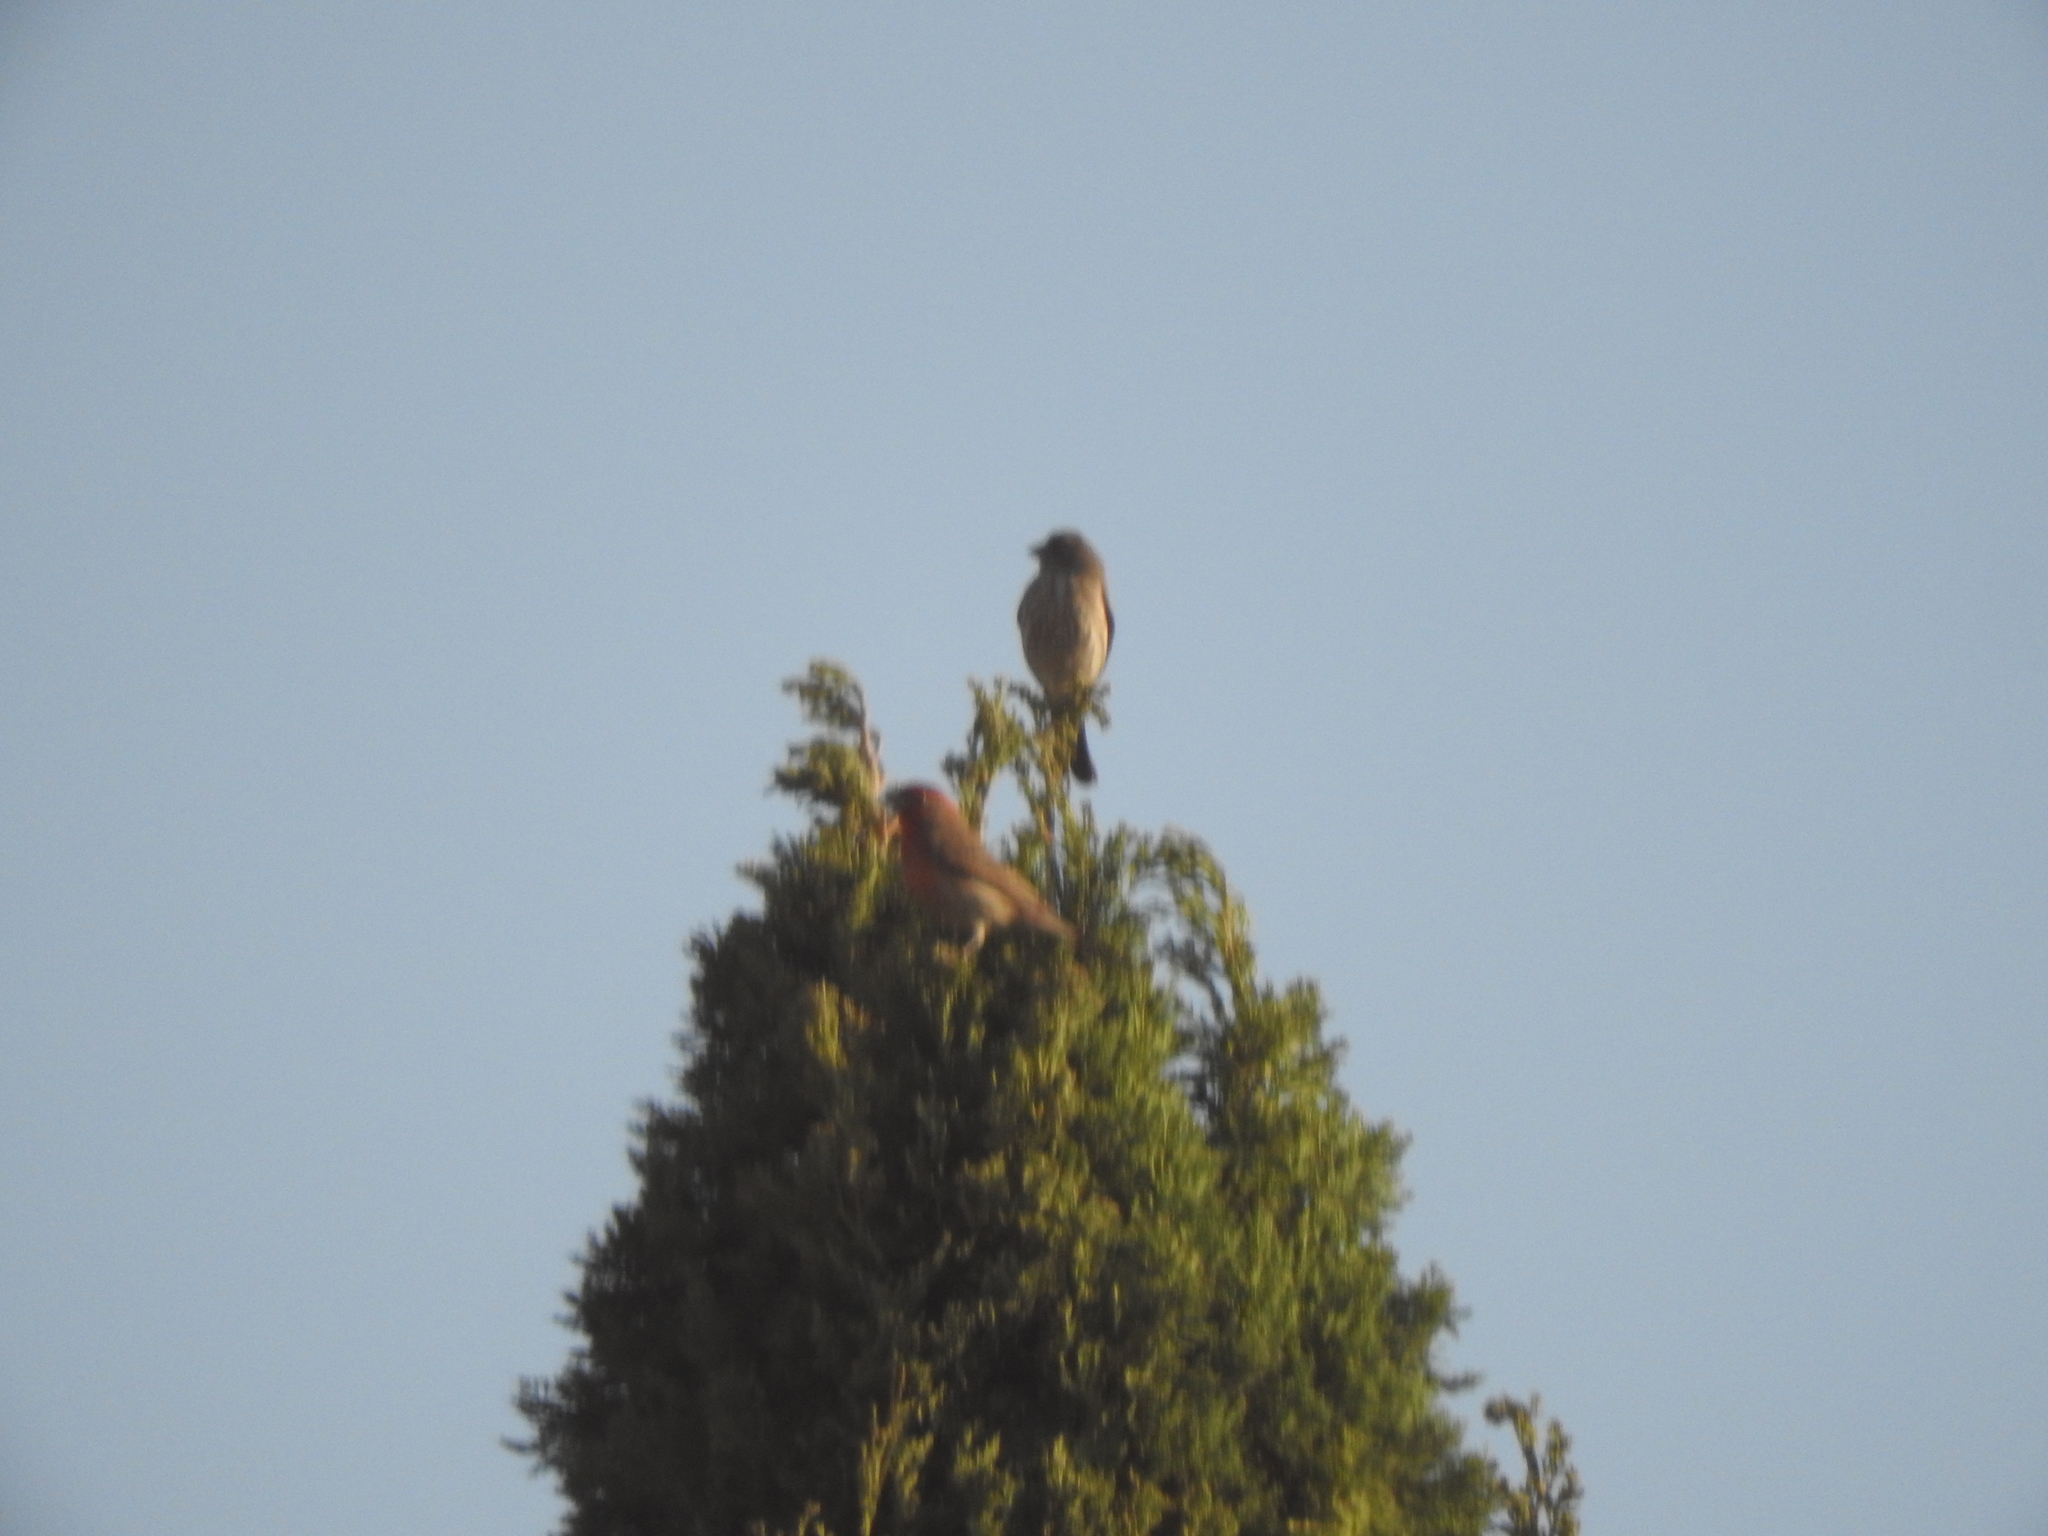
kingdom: Animalia
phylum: Chordata
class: Aves
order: Passeriformes
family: Fringillidae
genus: Haemorhous
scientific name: Haemorhous mexicanus
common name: House finch
